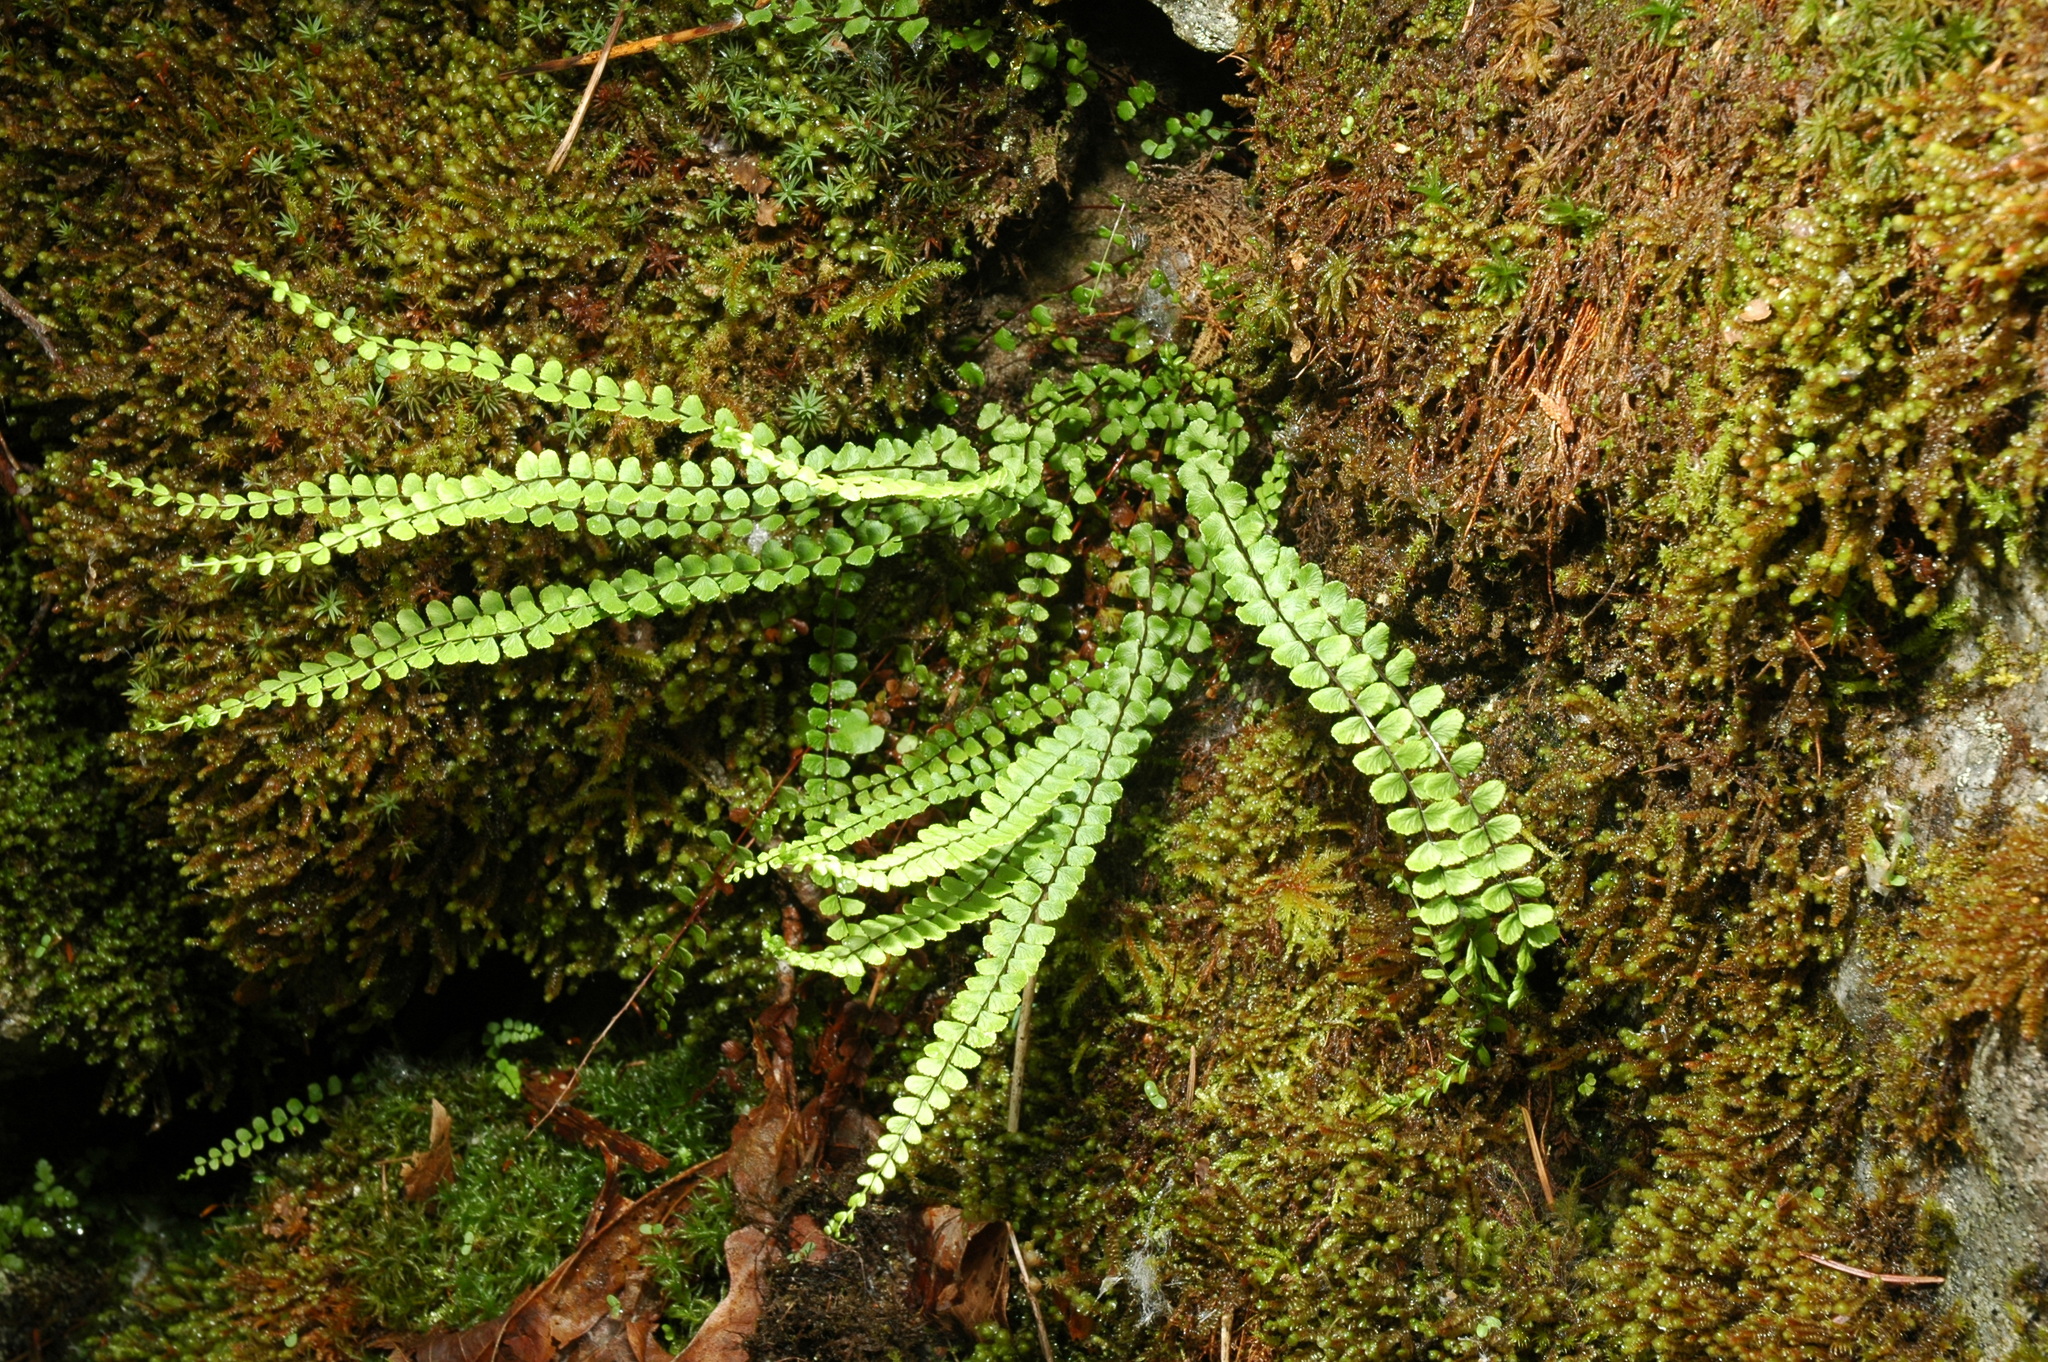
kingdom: Plantae
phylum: Tracheophyta
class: Polypodiopsida
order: Polypodiales
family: Aspleniaceae
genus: Asplenium
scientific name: Asplenium trichomanes
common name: Maidenhair spleenwort
